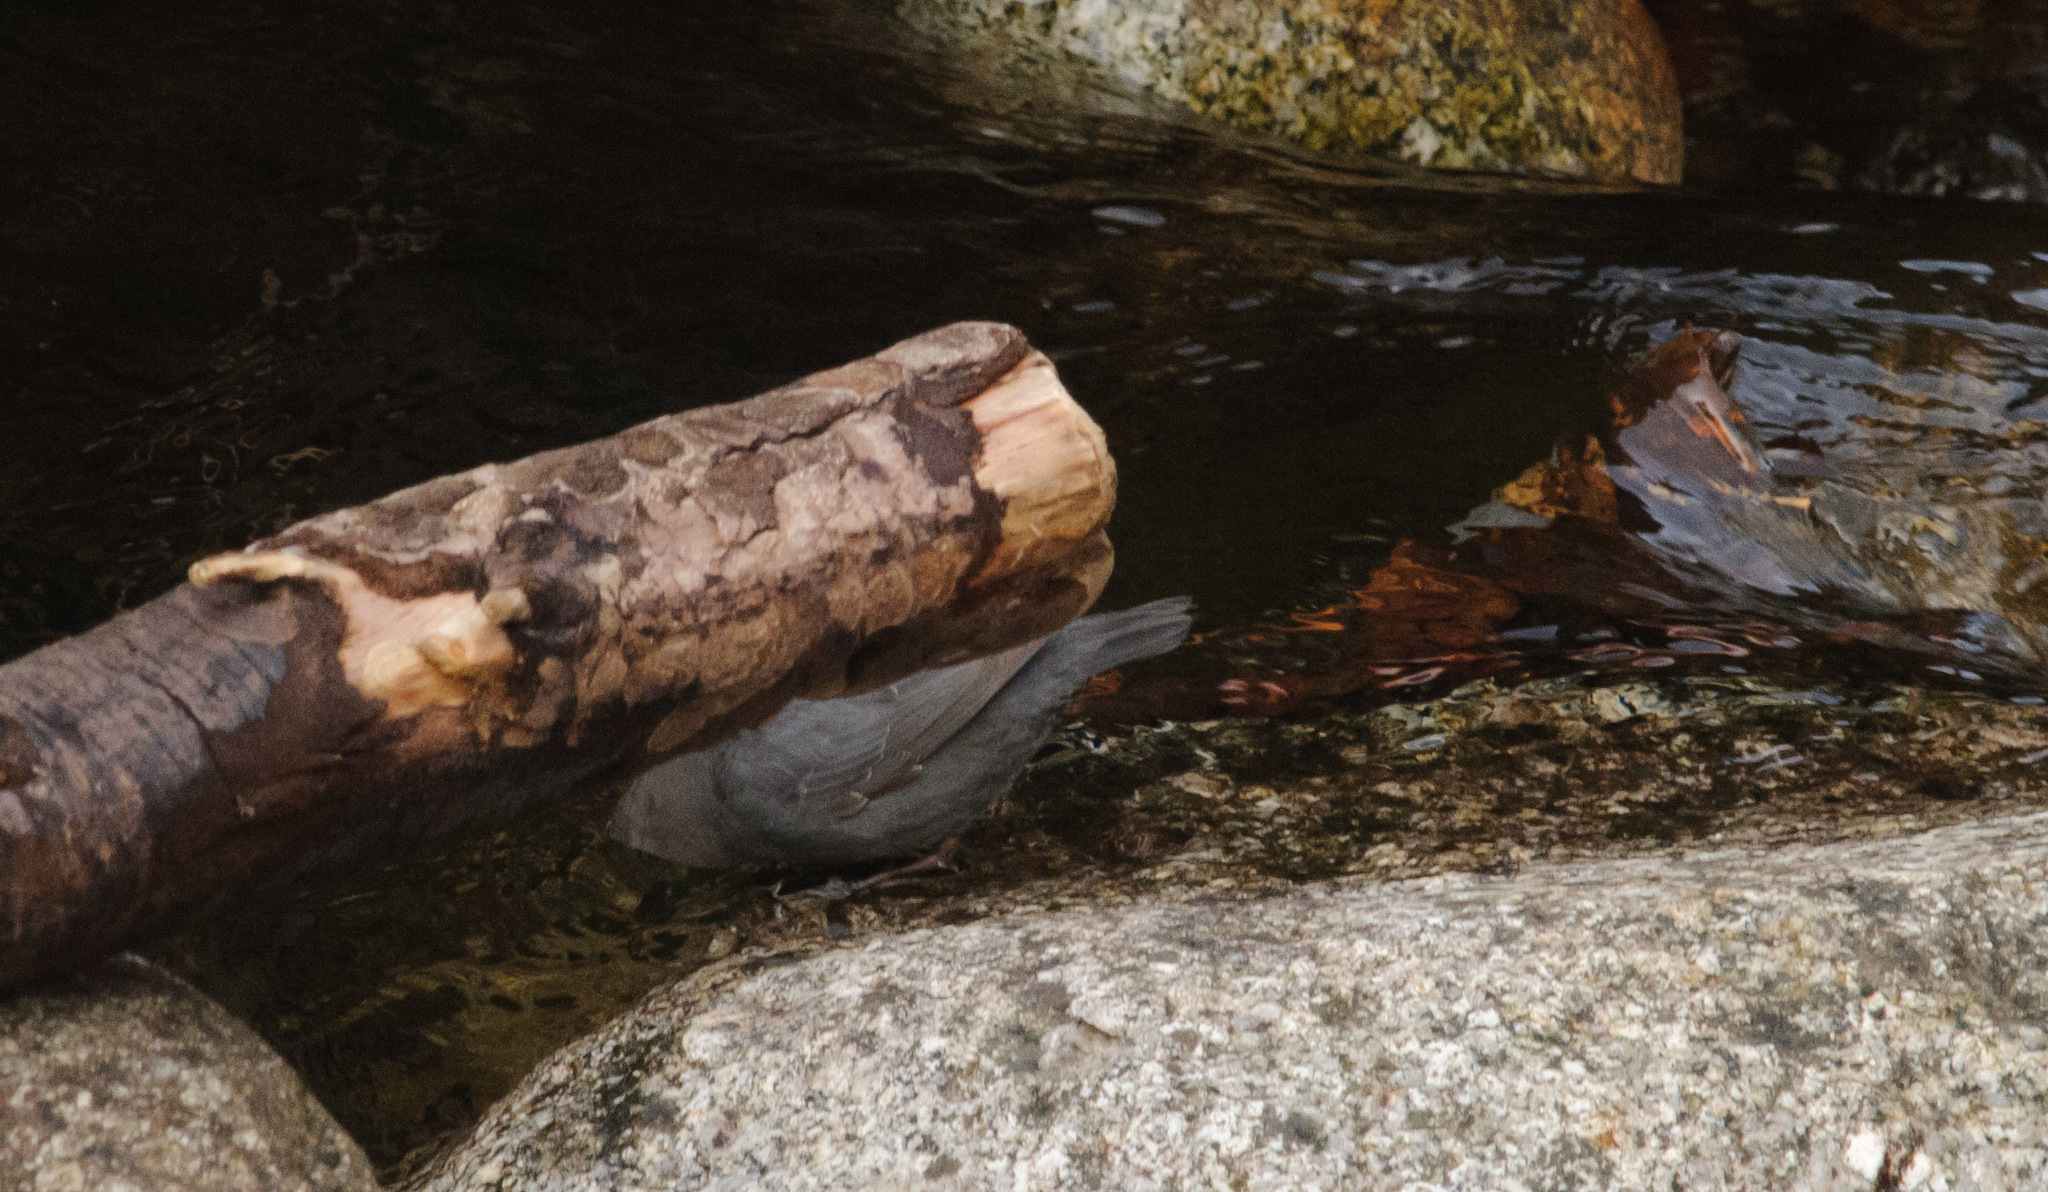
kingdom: Animalia
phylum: Chordata
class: Aves
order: Passeriformes
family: Cinclidae
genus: Cinclus
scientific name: Cinclus mexicanus
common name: American dipper
